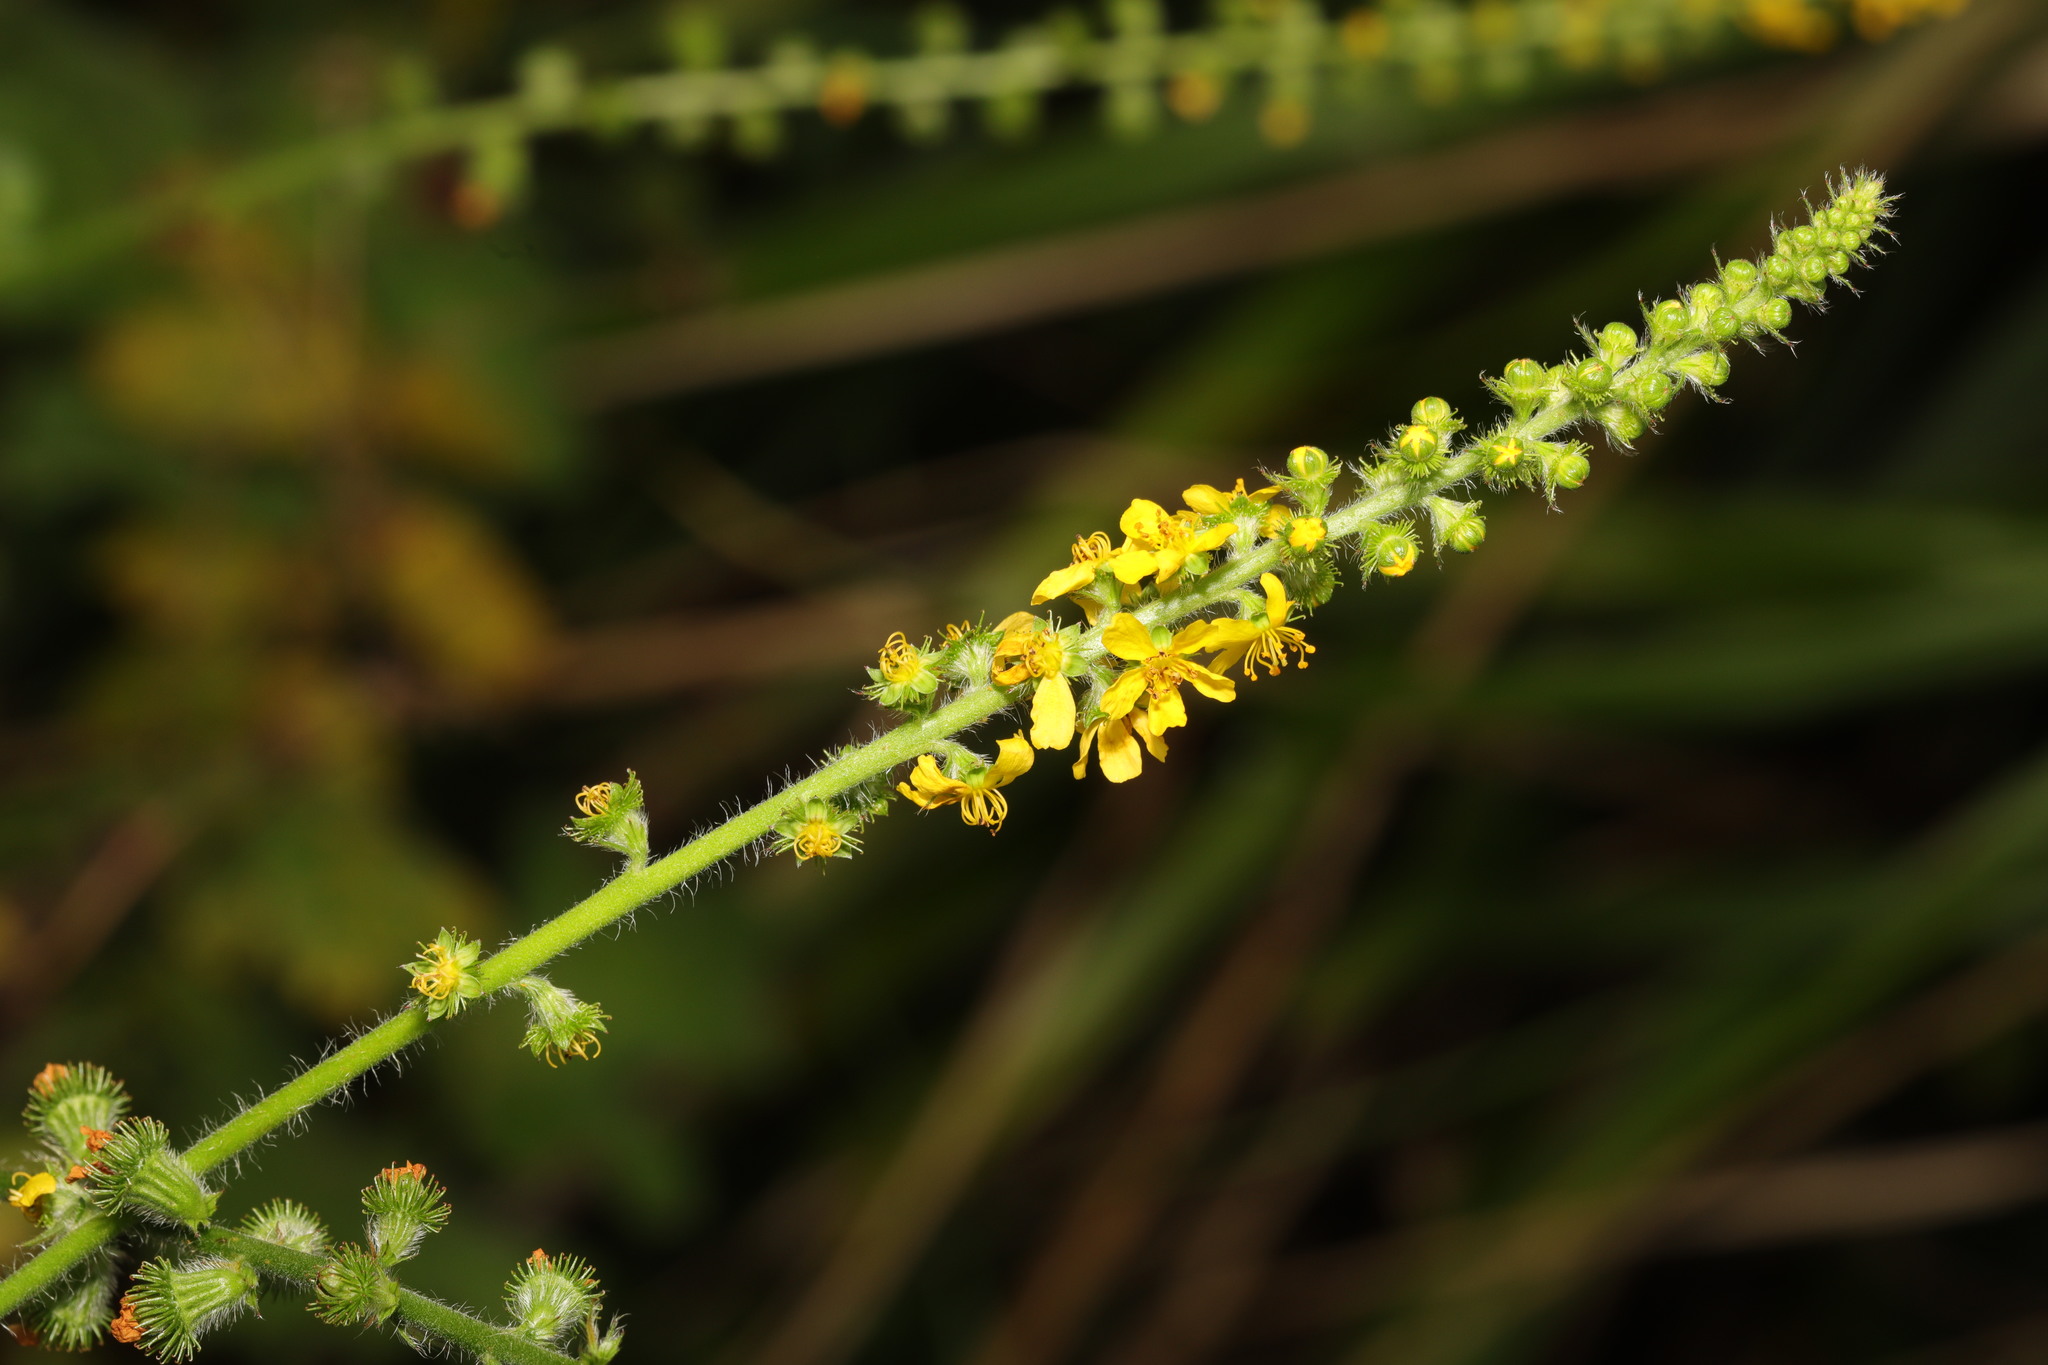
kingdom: Plantae
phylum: Tracheophyta
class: Magnoliopsida
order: Rosales
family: Rosaceae
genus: Agrimonia
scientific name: Agrimonia eupatoria
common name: Agrimony
